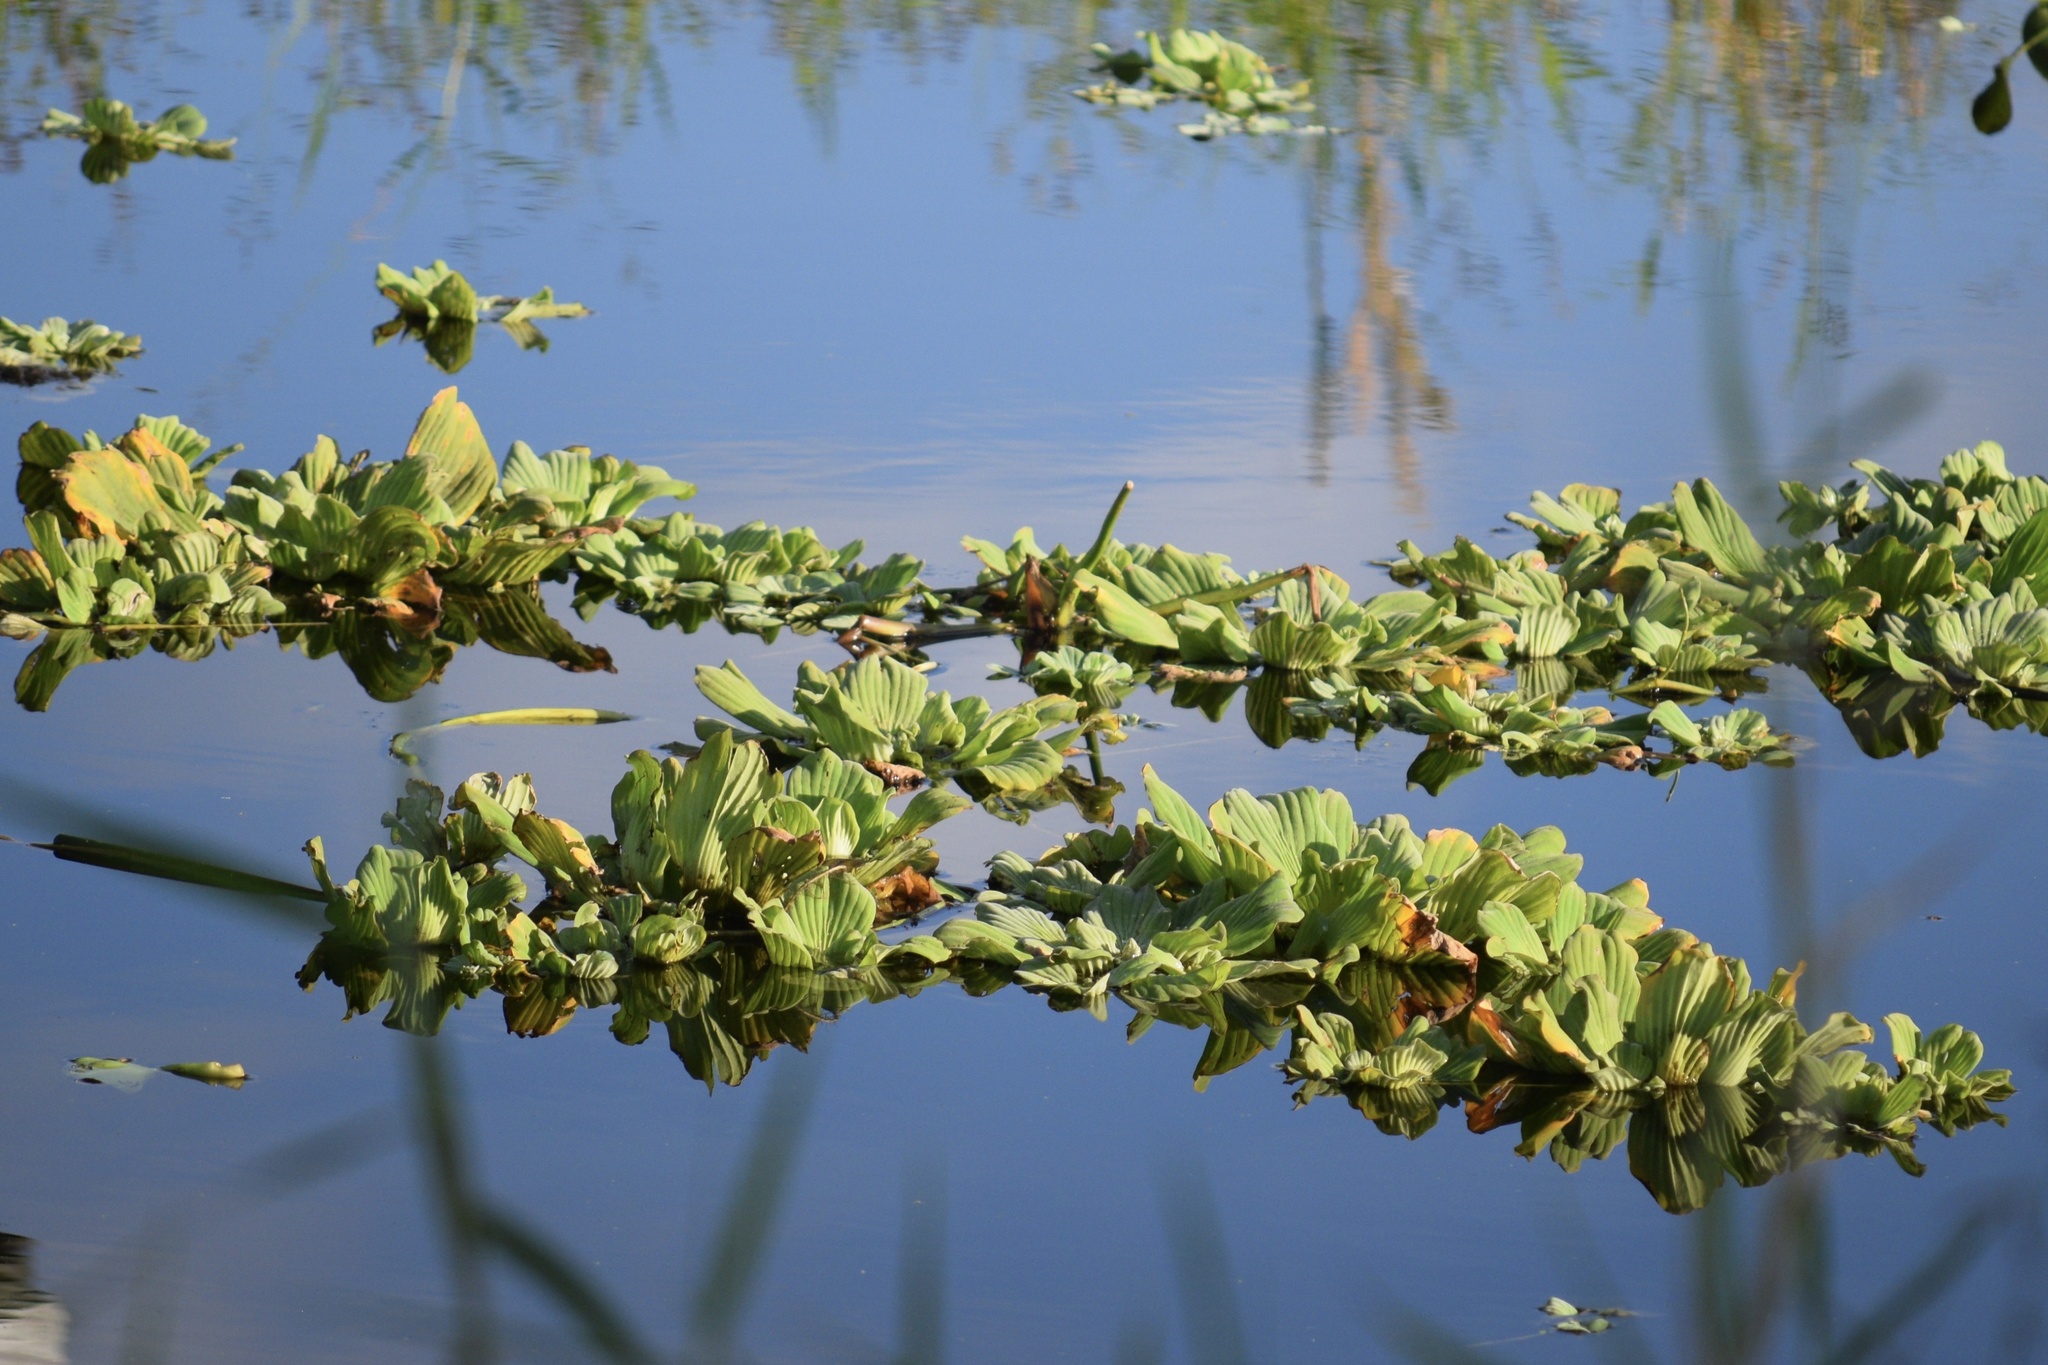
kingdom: Plantae
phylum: Tracheophyta
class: Liliopsida
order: Alismatales
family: Araceae
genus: Pistia
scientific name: Pistia stratiotes
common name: Water lettuce
